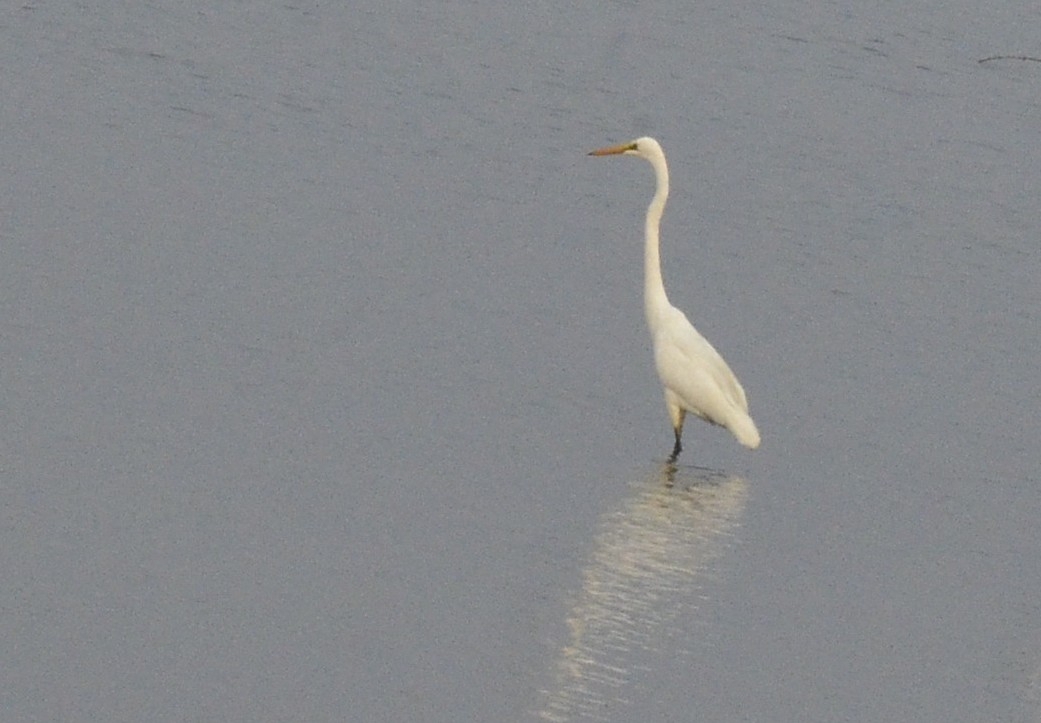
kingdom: Animalia
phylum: Chordata
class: Aves
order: Pelecaniformes
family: Ardeidae
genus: Ardea
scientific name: Ardea alba
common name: Great egret
